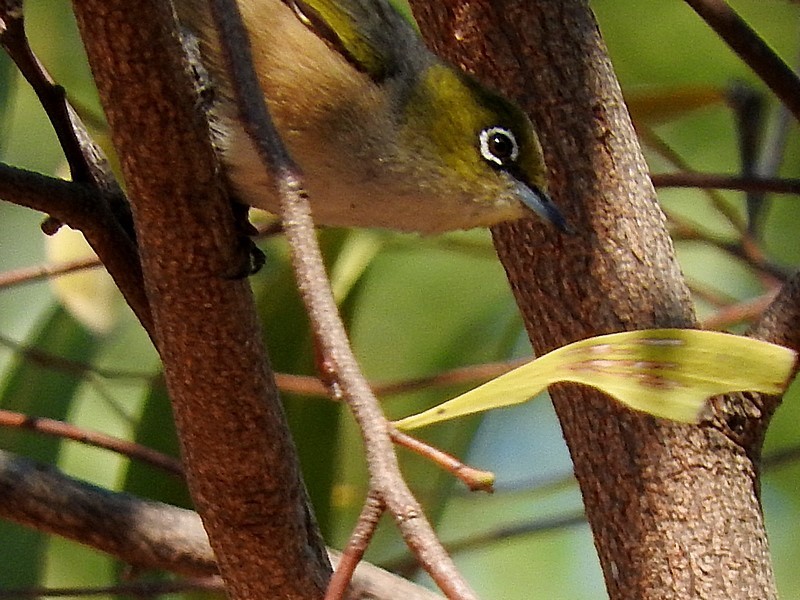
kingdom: Animalia
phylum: Chordata
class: Aves
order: Passeriformes
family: Zosteropidae
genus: Zosterops
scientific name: Zosterops lateralis
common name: Silvereye
